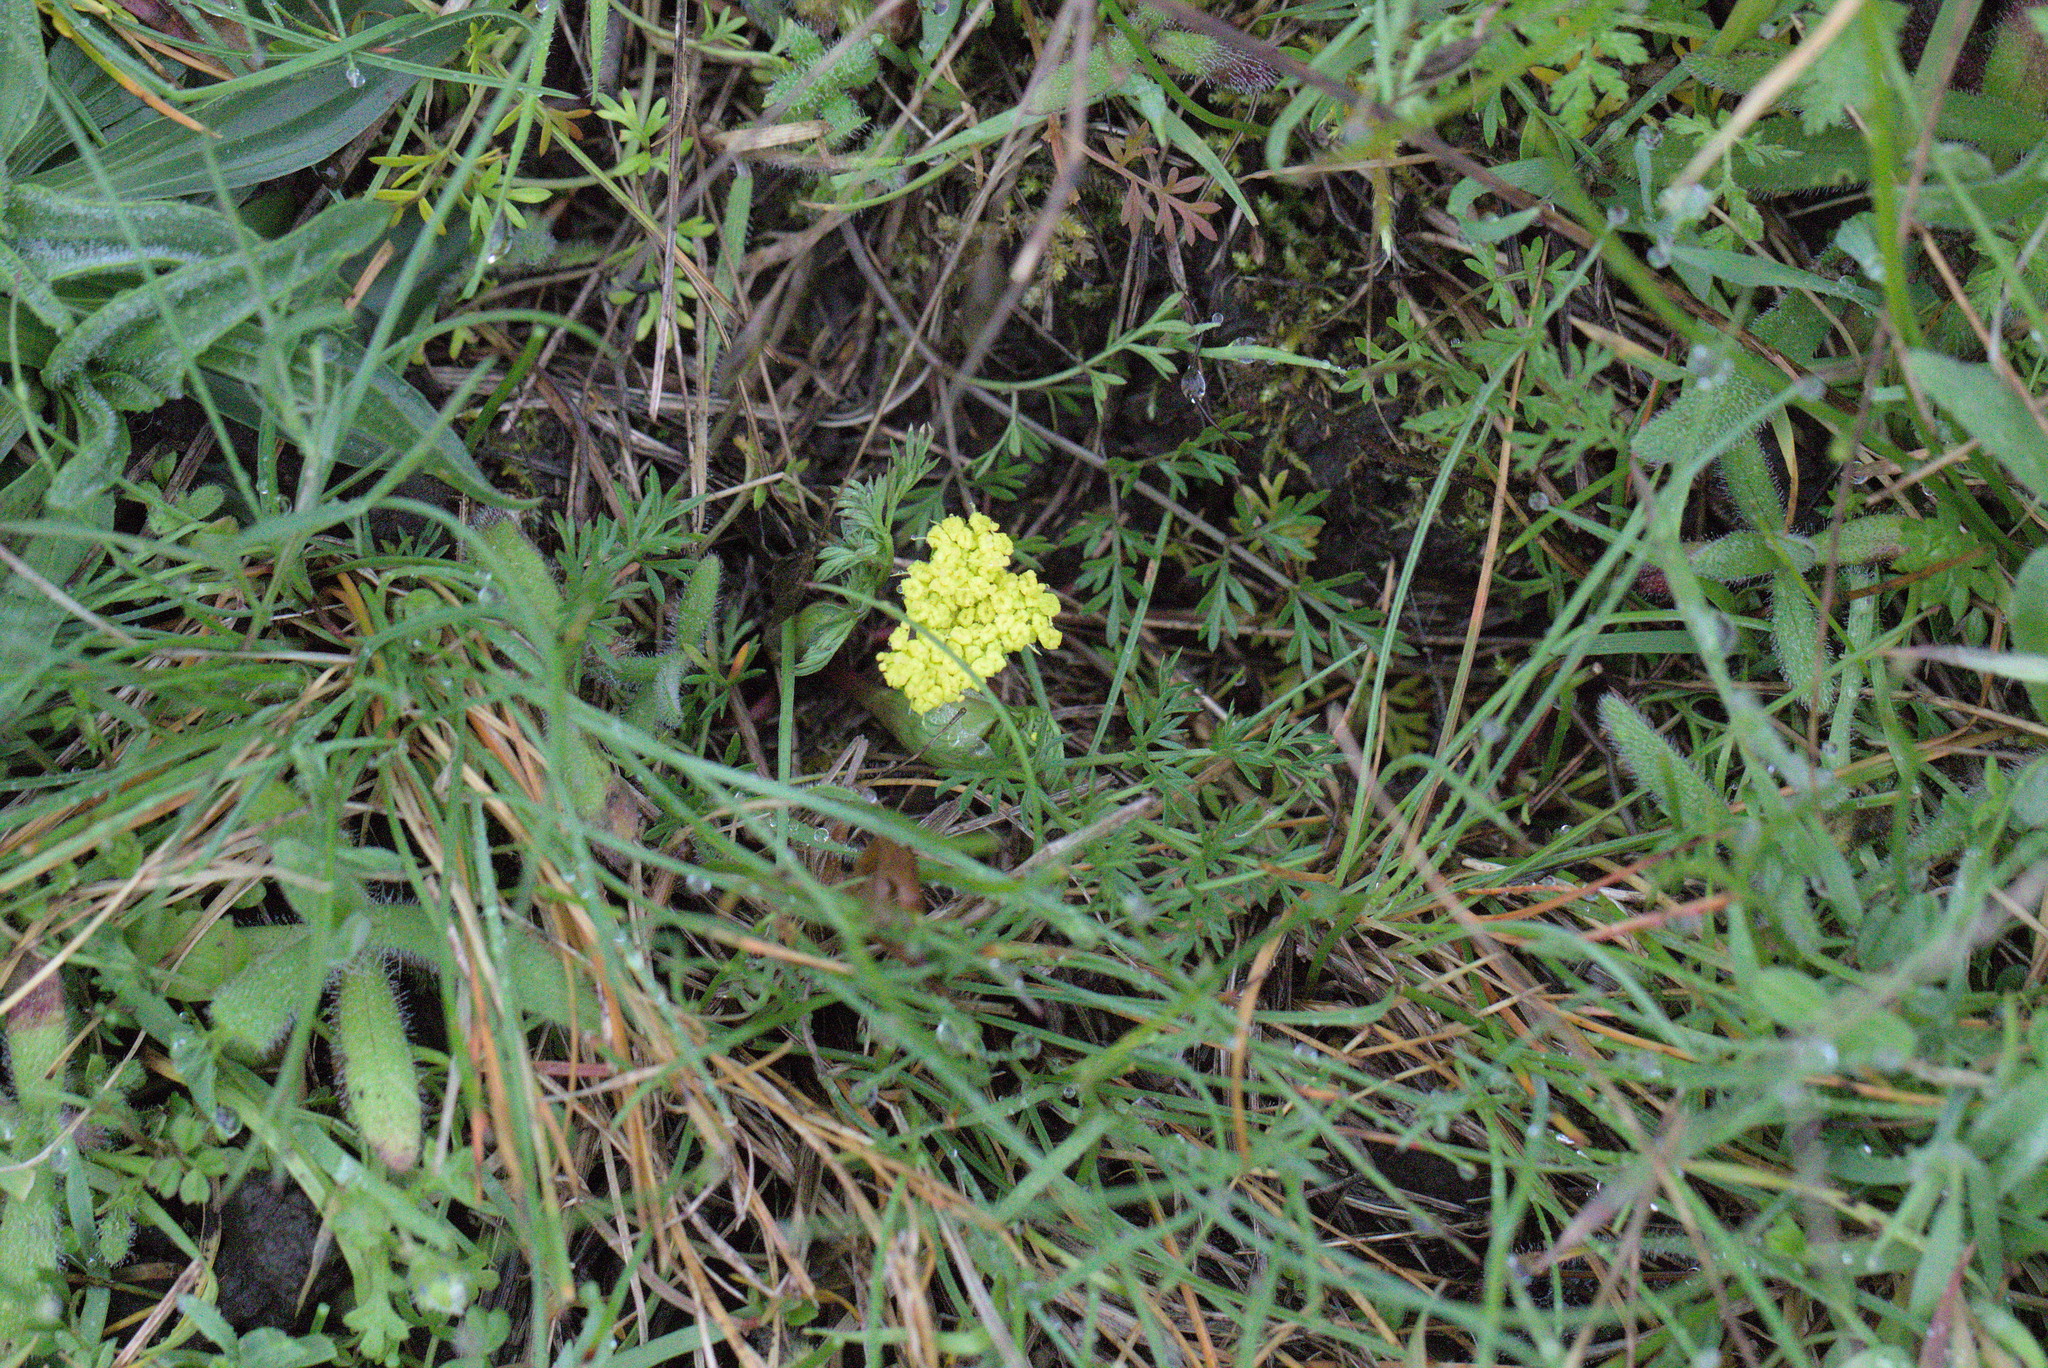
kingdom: Plantae
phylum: Tracheophyta
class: Magnoliopsida
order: Apiales
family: Apiaceae
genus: Lomatium
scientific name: Lomatium utriculatum
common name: Fine-leaf desert-parsley
